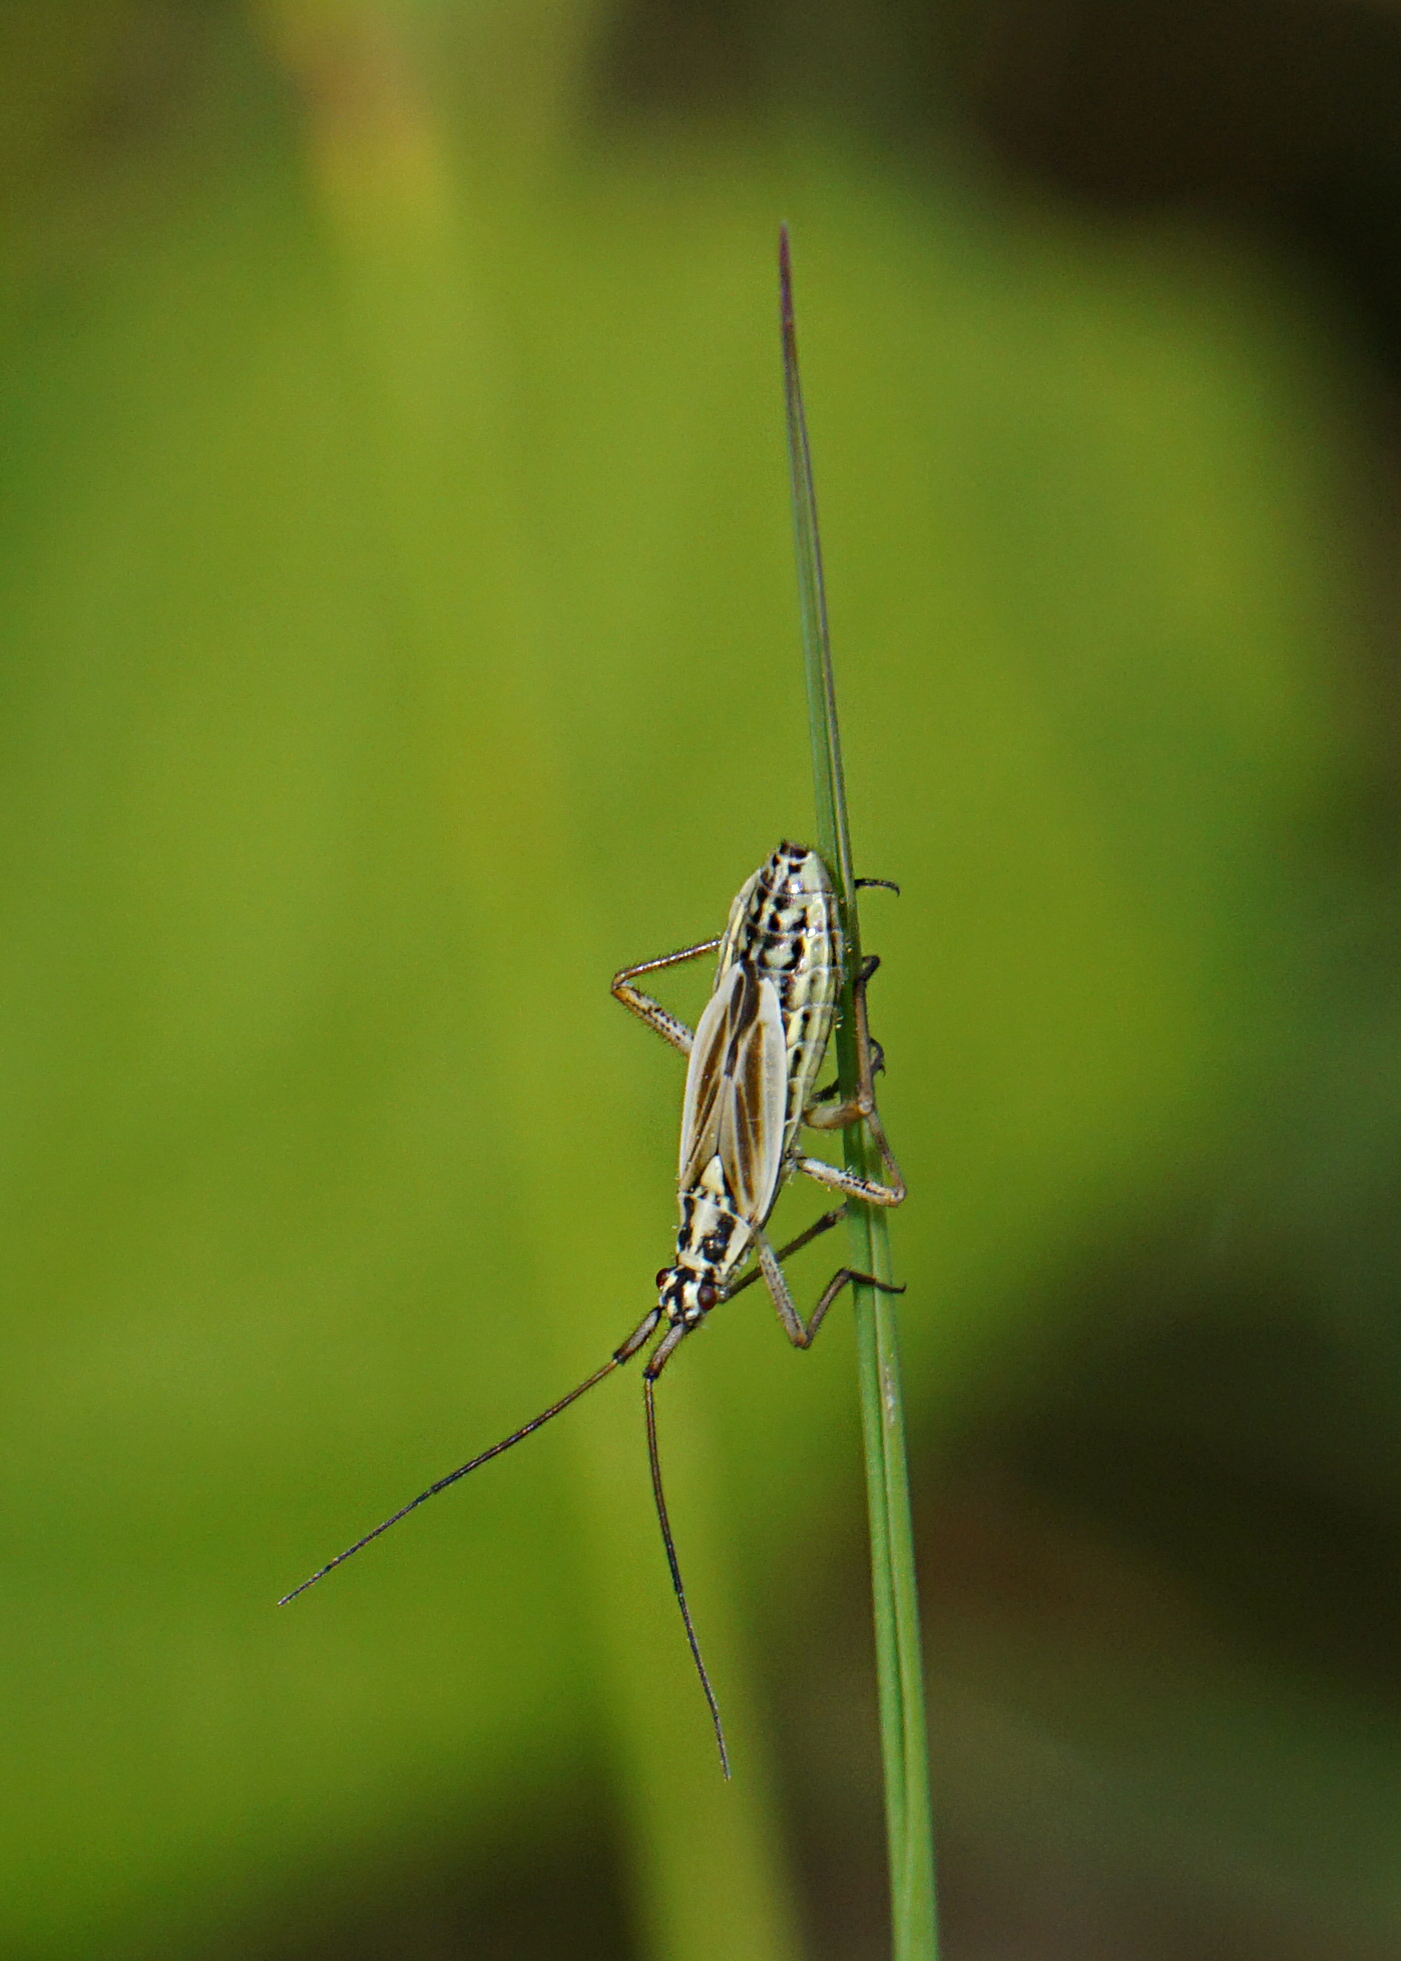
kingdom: Animalia
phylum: Arthropoda
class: Insecta
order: Hemiptera
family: Miridae
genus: Leptopterna
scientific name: Leptopterna dolabrata
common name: Meadow plant bug
